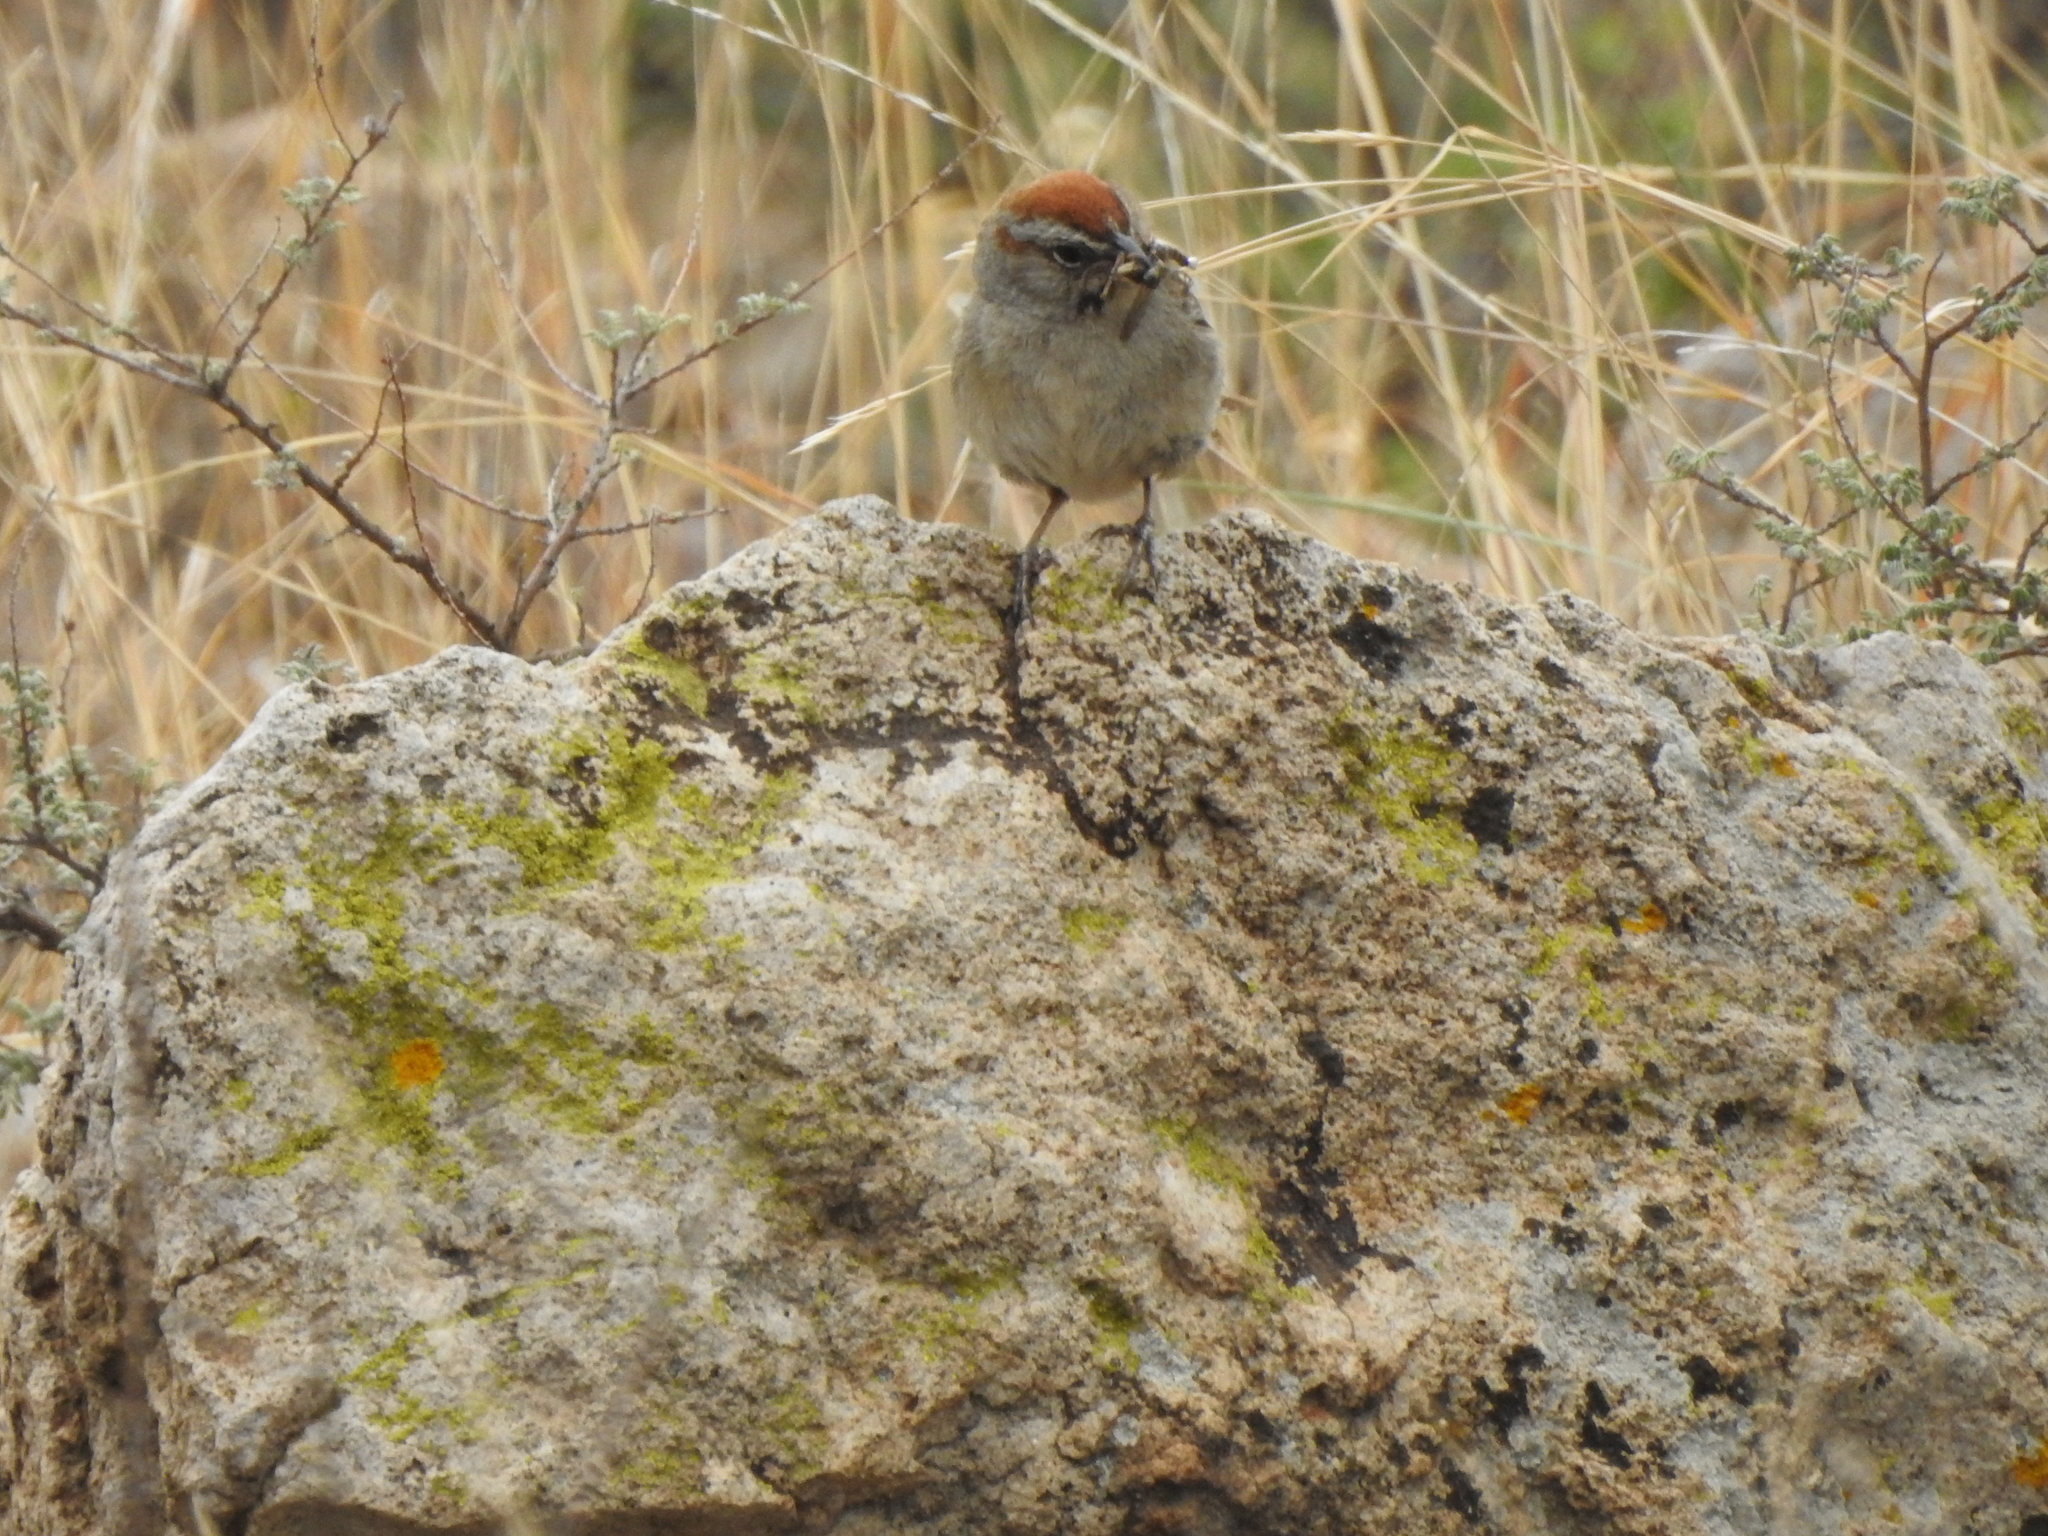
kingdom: Animalia
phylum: Chordata
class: Aves
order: Passeriformes
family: Passerellidae
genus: Aimophila
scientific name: Aimophila ruficeps
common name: Rufous-crowned sparrow
